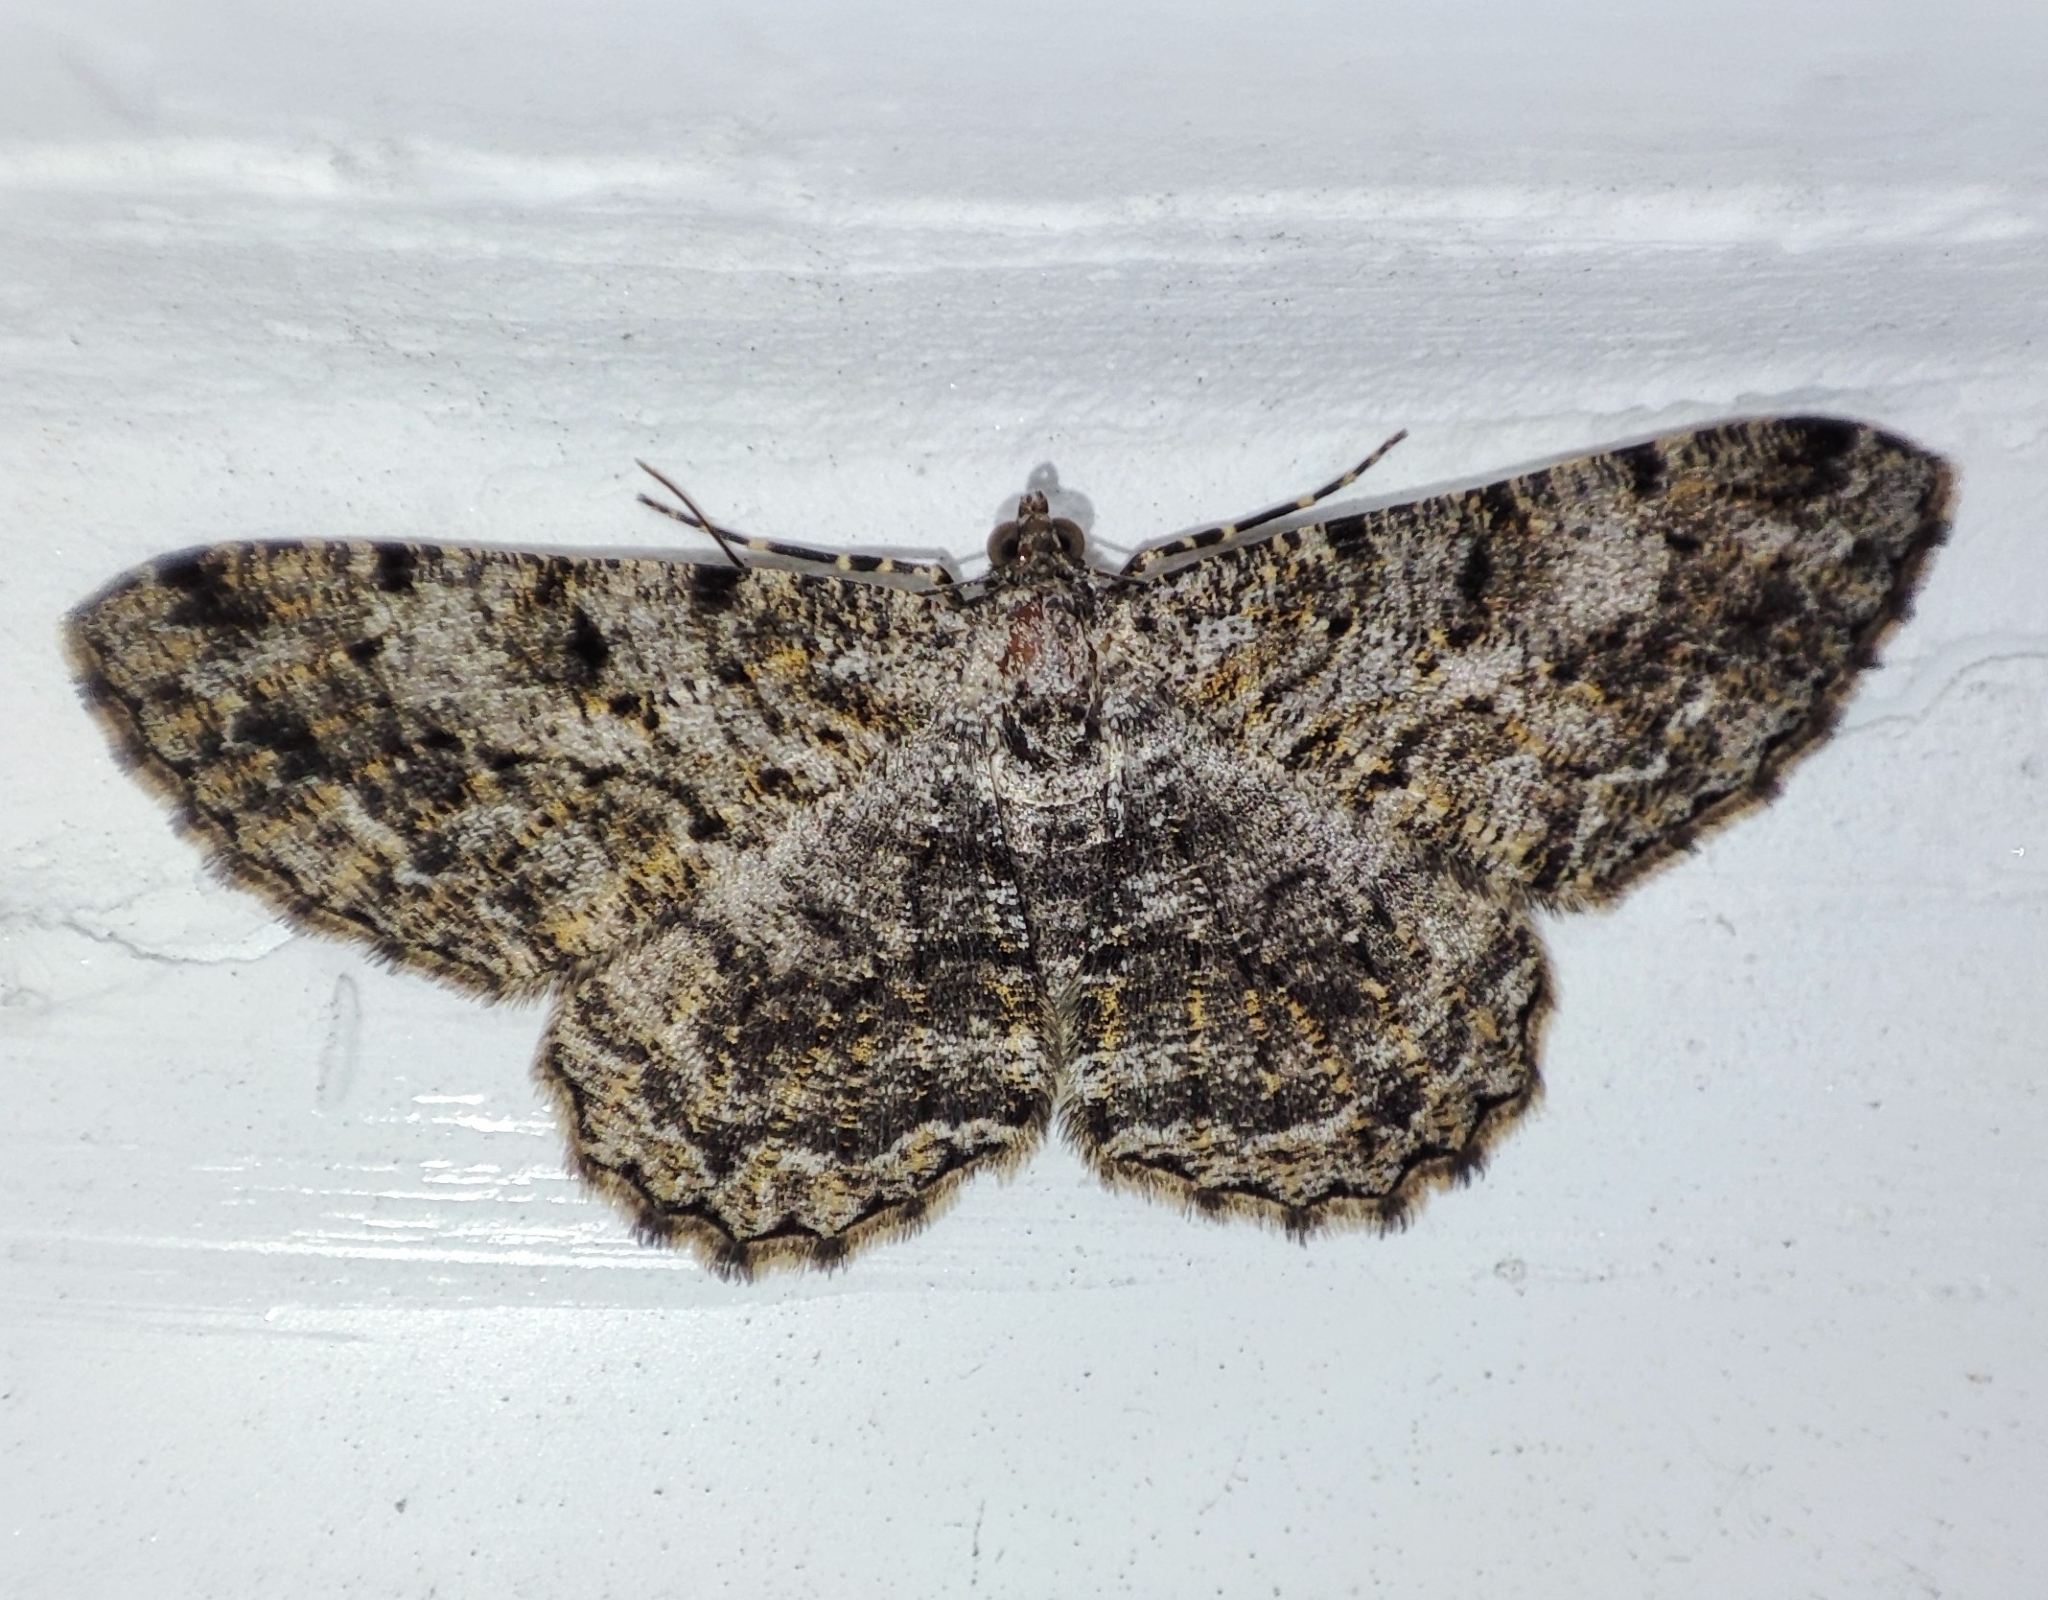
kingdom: Animalia
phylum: Arthropoda
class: Insecta
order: Lepidoptera
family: Geometridae
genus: Peribatodes
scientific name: Peribatodes rhomboidaria
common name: Willow beauty
